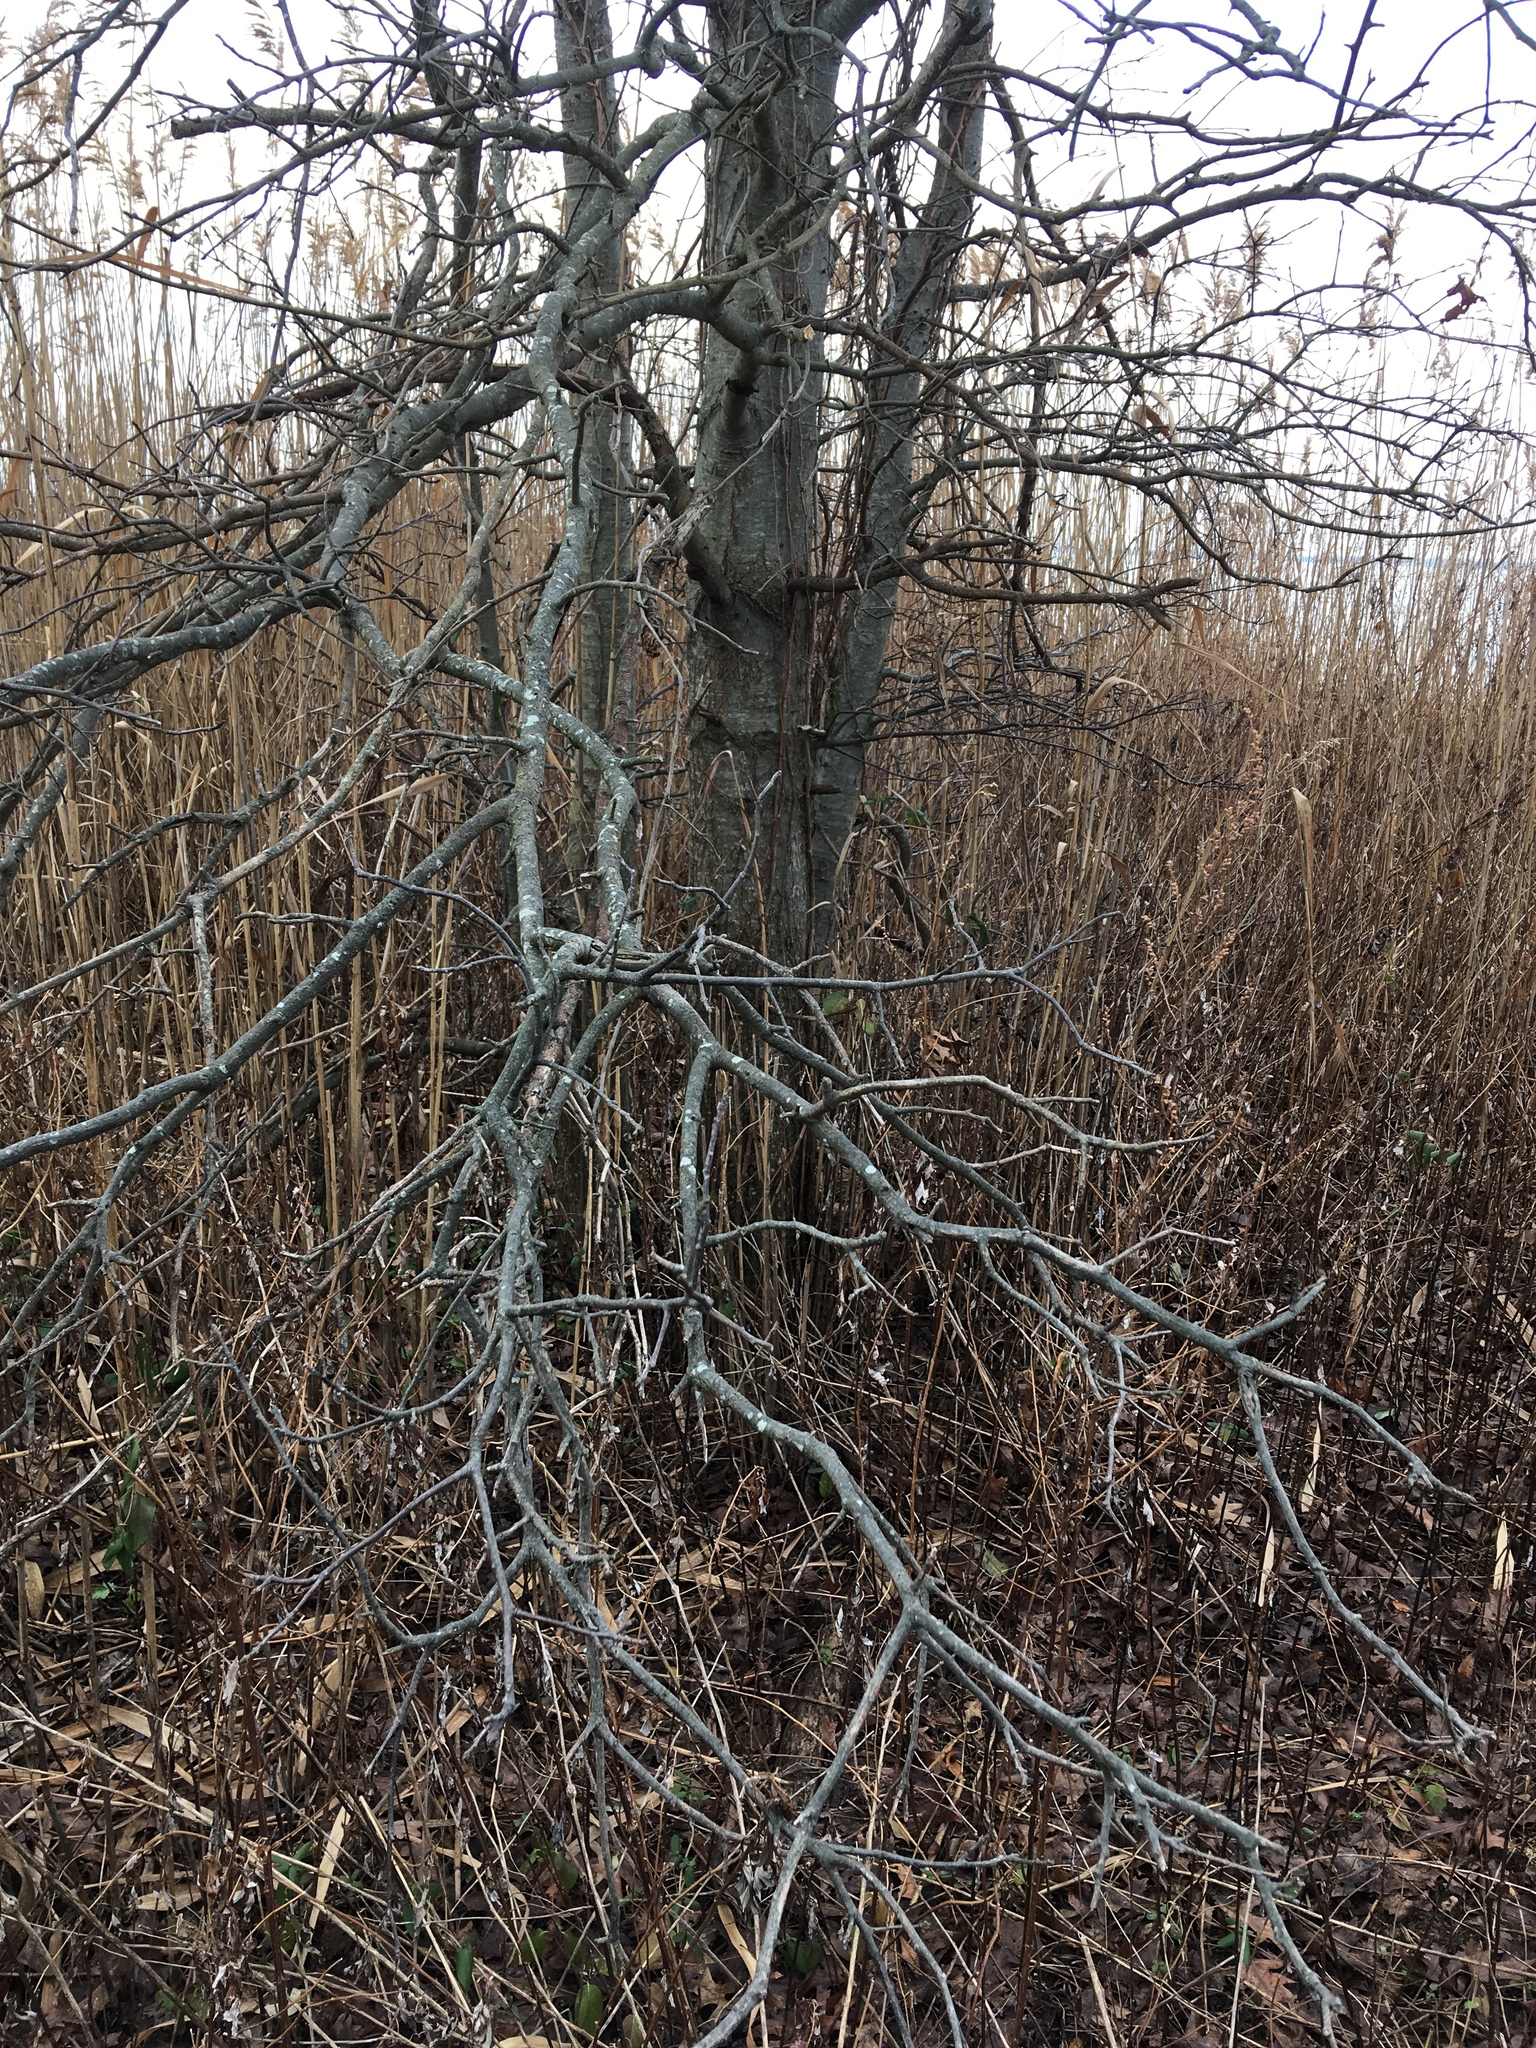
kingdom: Plantae
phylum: Tracheophyta
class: Magnoliopsida
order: Fagales
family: Fagaceae
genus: Quercus
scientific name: Quercus palustris
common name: Pin oak
